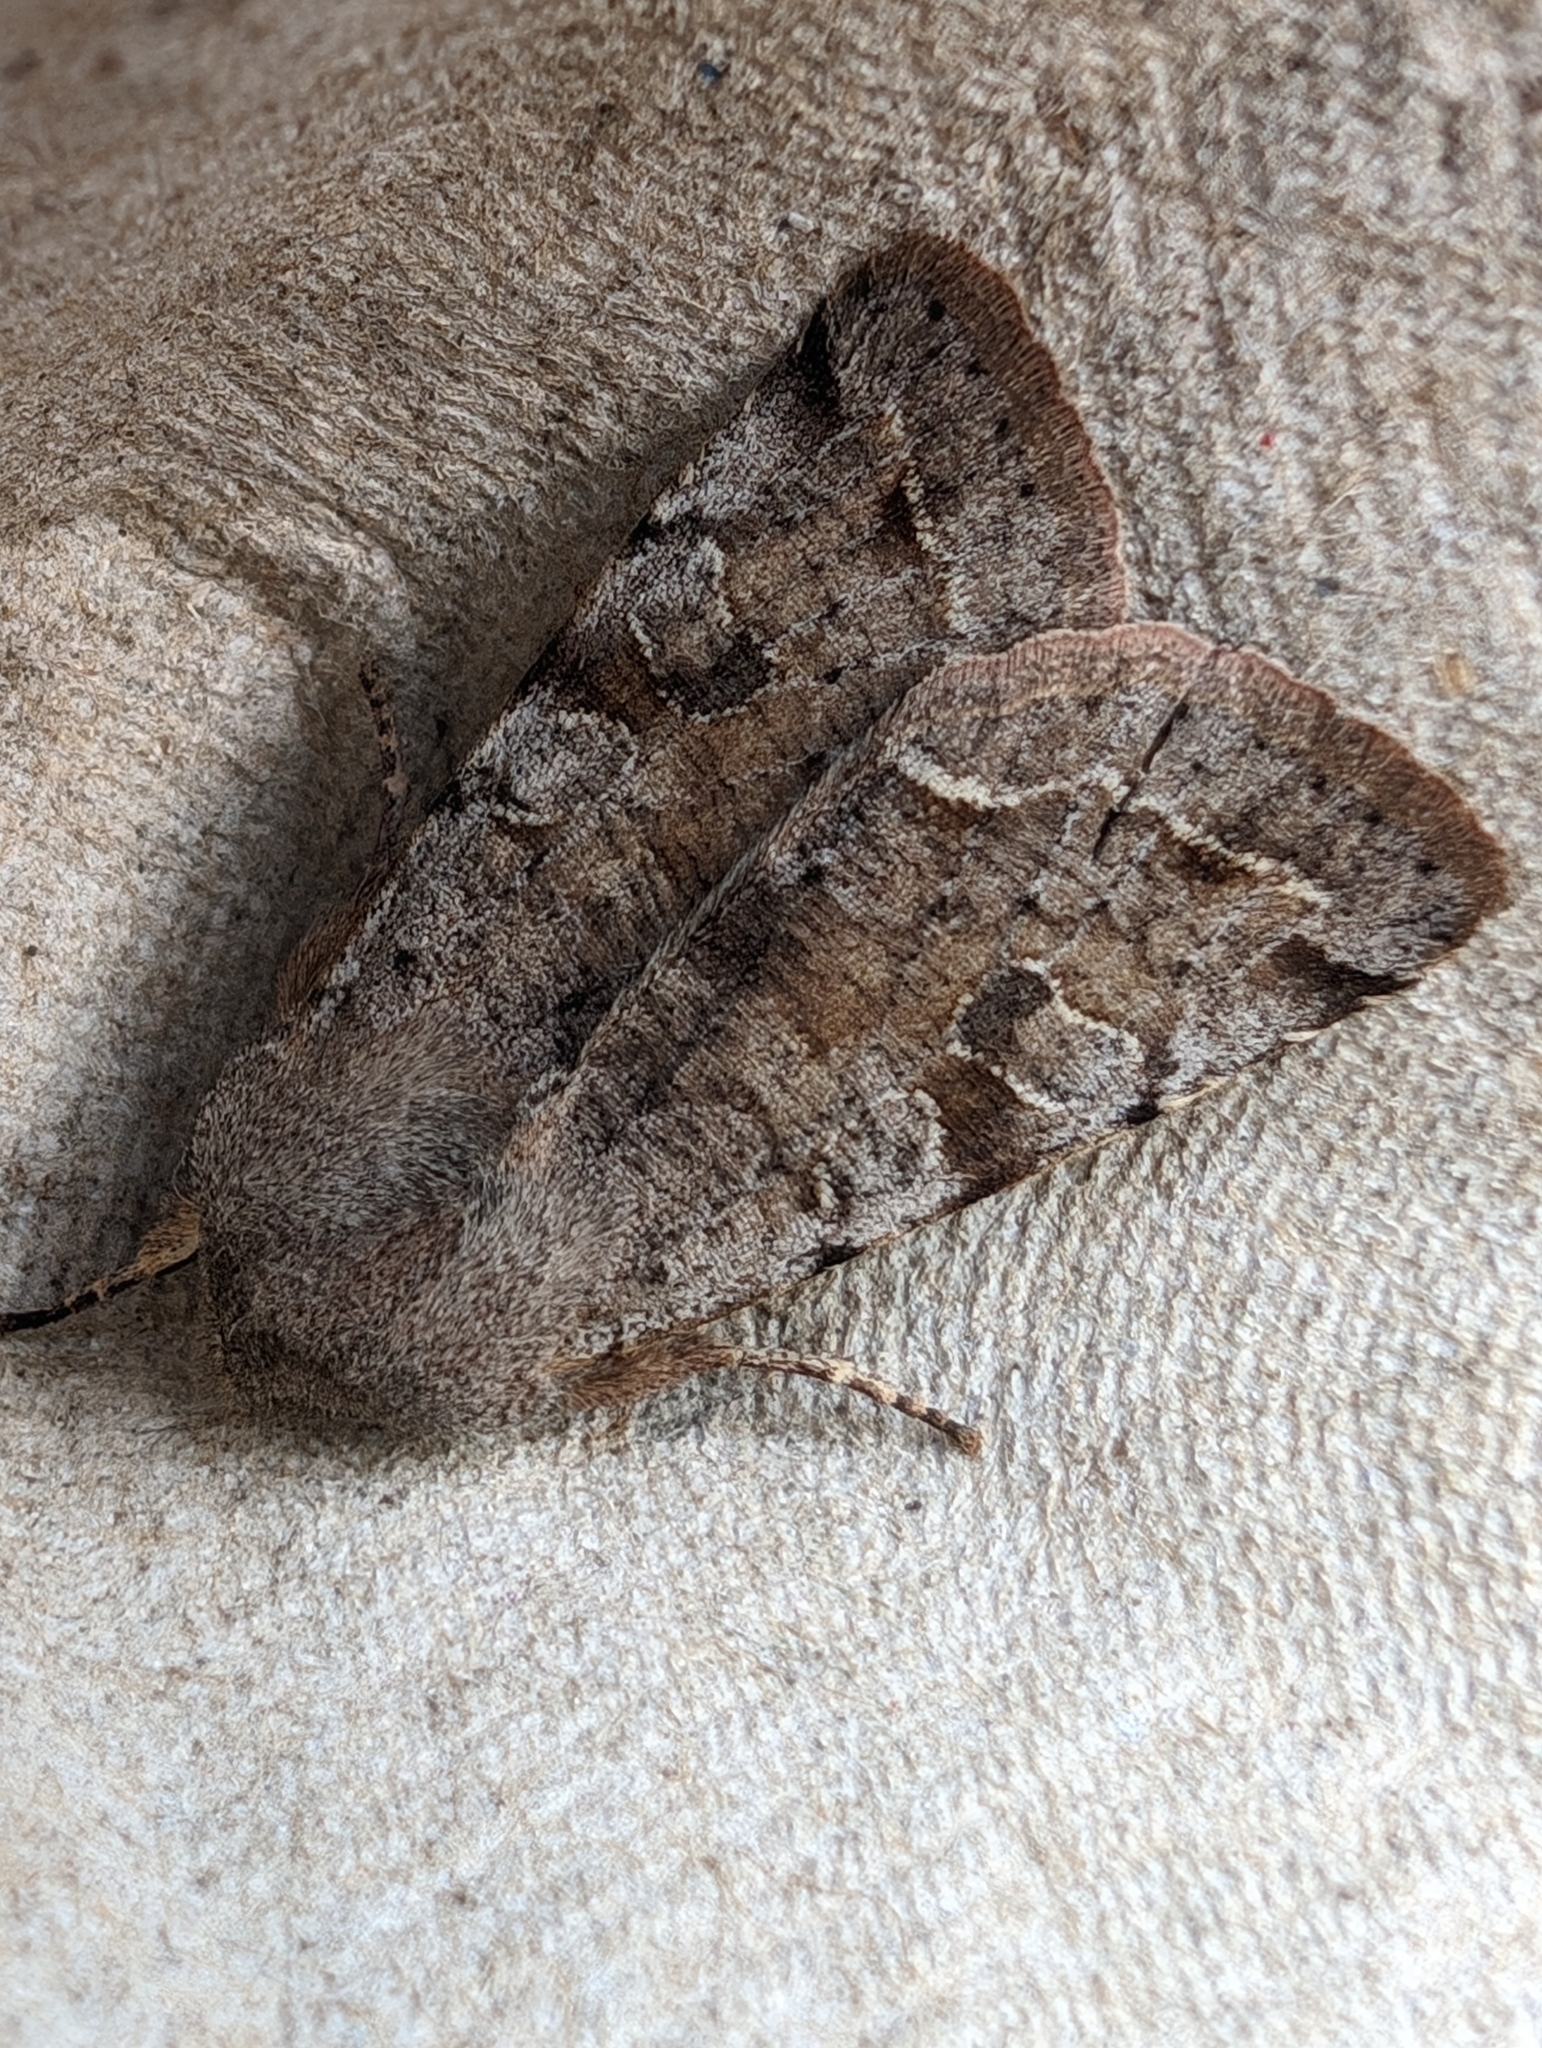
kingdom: Animalia
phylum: Arthropoda
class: Insecta
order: Lepidoptera
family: Noctuidae
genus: Orthosia
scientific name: Orthosia incerta
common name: Clouded drab
